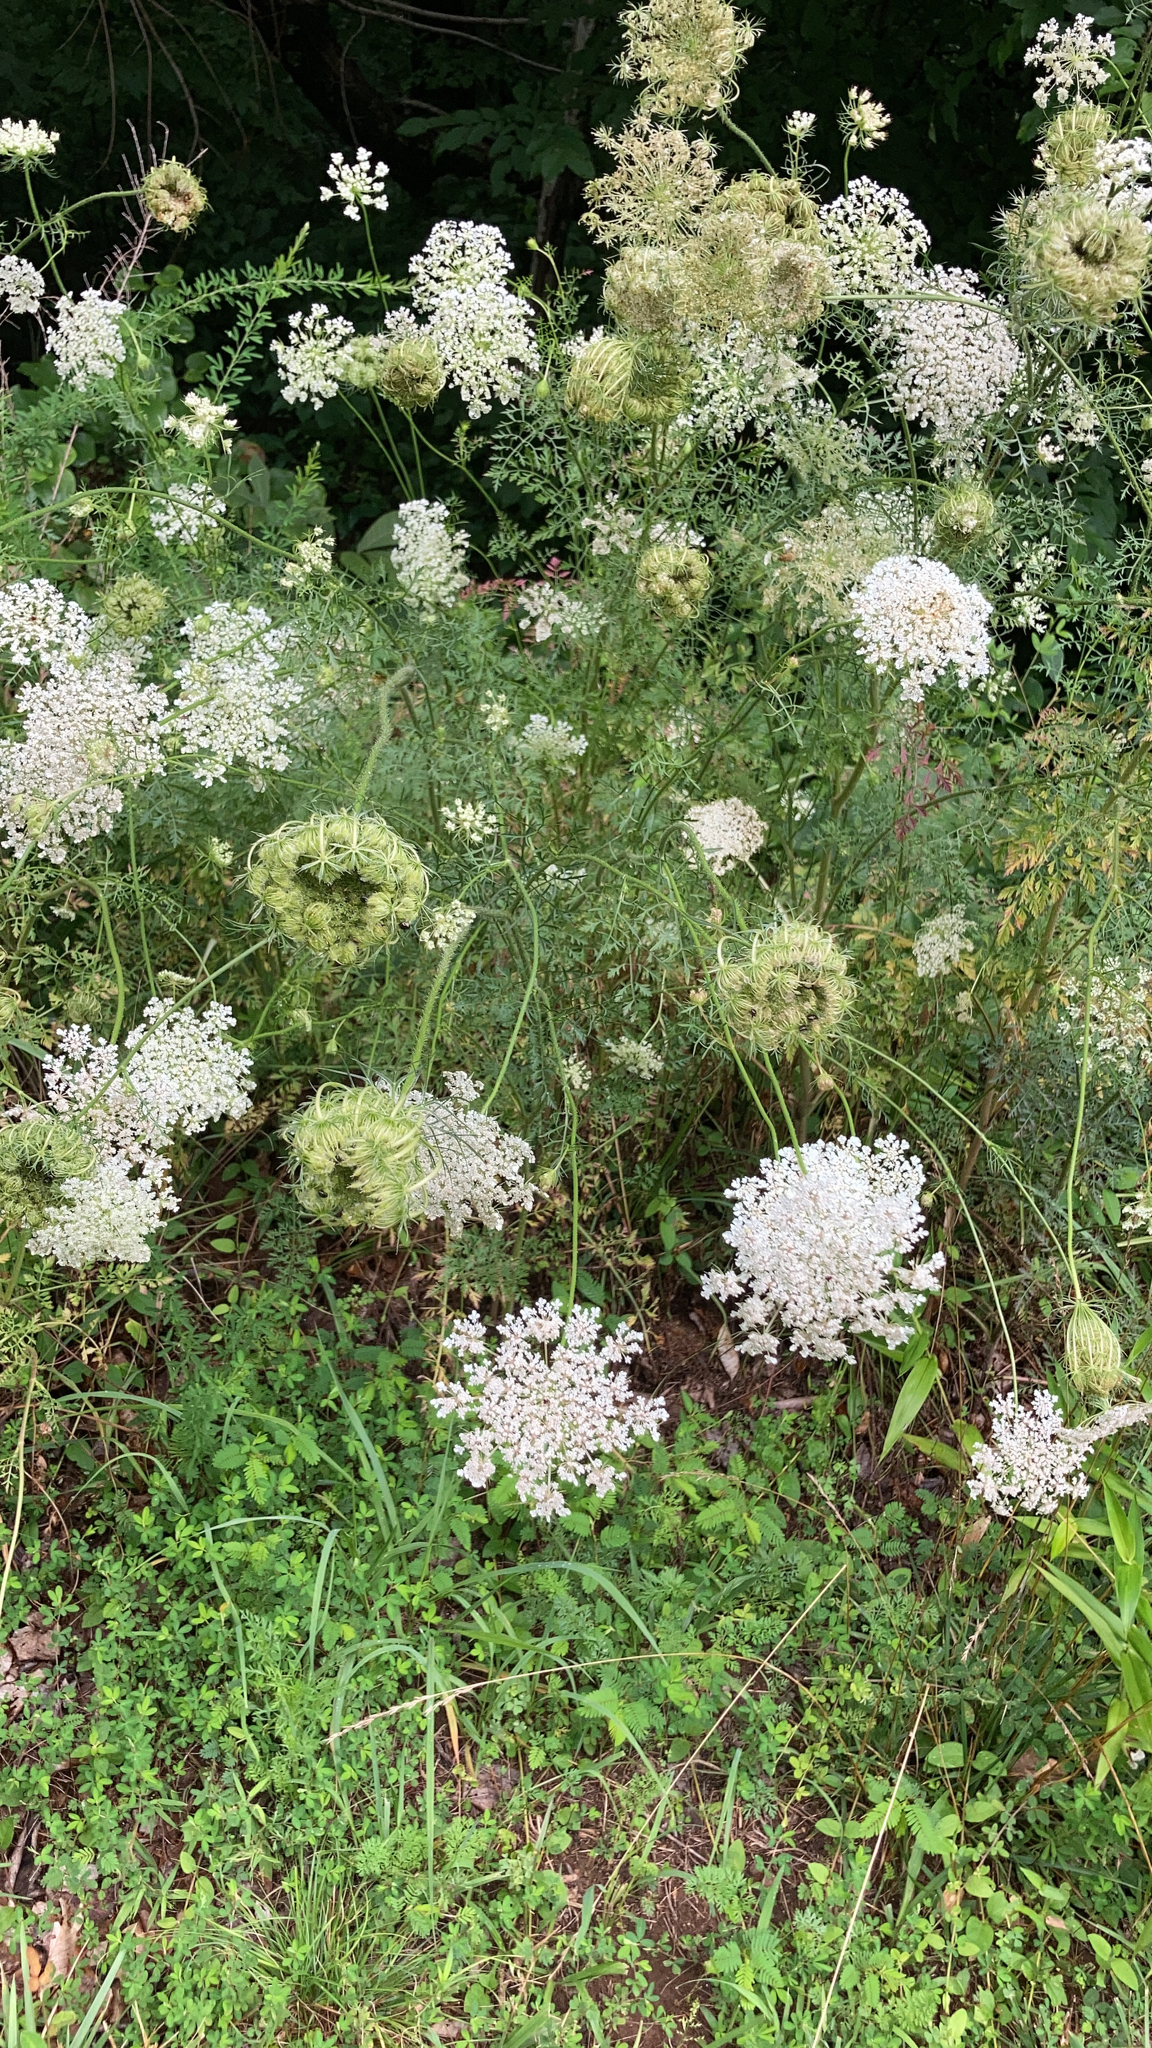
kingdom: Plantae
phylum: Tracheophyta
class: Magnoliopsida
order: Apiales
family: Apiaceae
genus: Daucus
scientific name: Daucus carota
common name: Wild carrot
